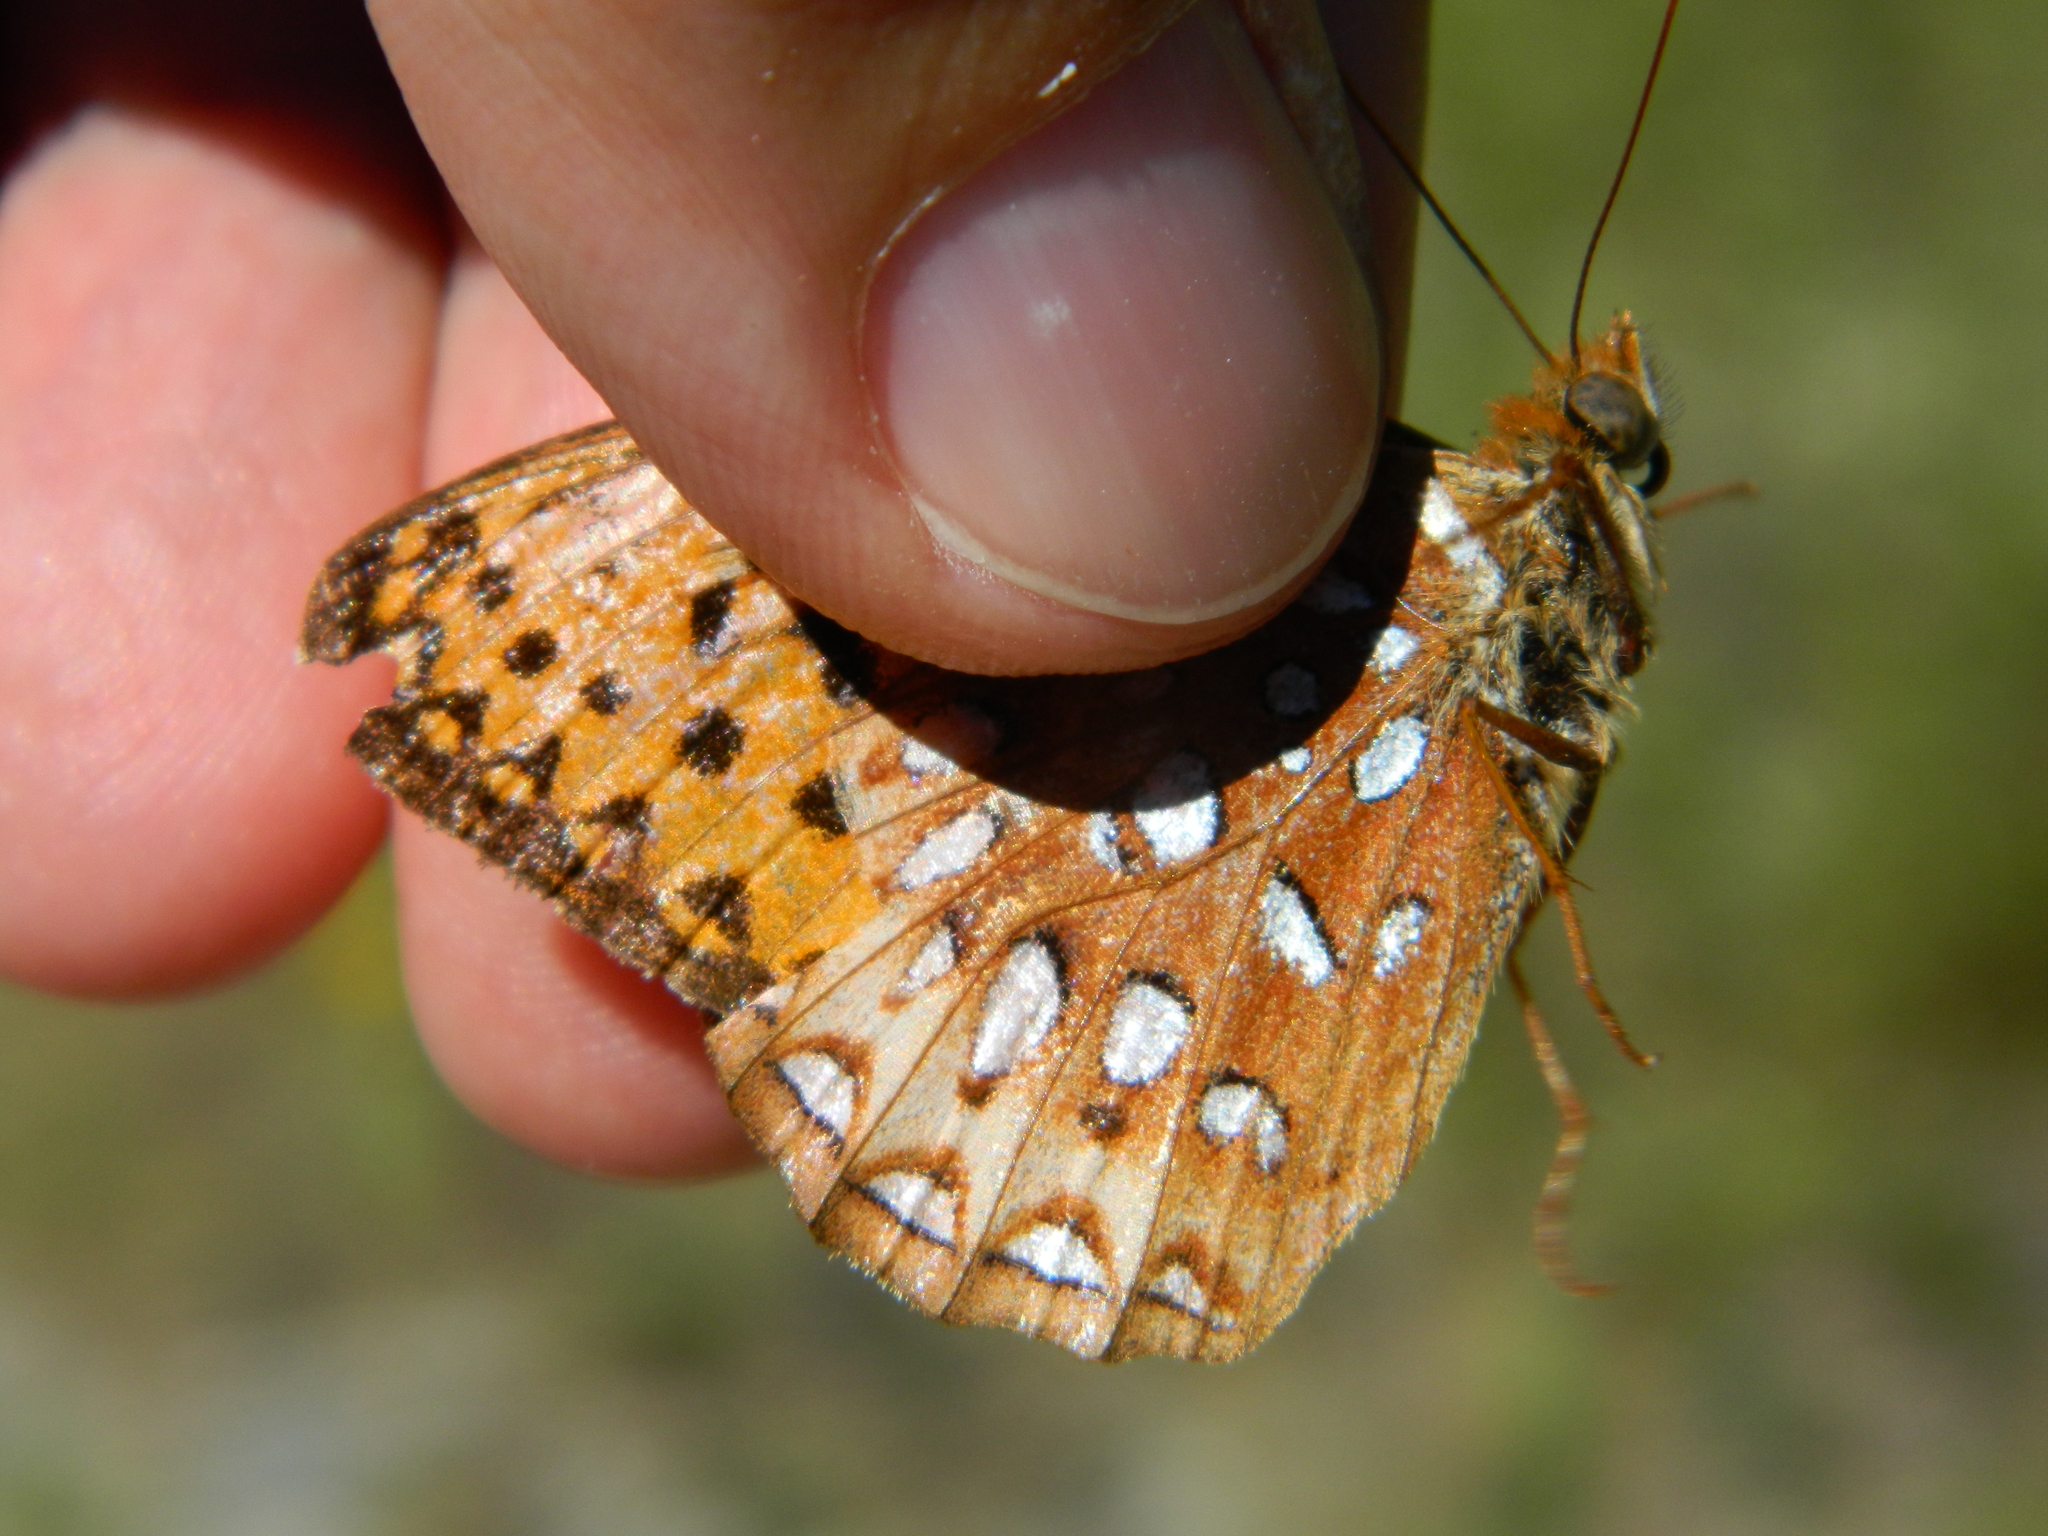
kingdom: Animalia
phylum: Arthropoda
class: Insecta
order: Lepidoptera
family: Nymphalidae
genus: Speyeria
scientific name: Speyeria atlantis
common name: Atlantis fritillary
